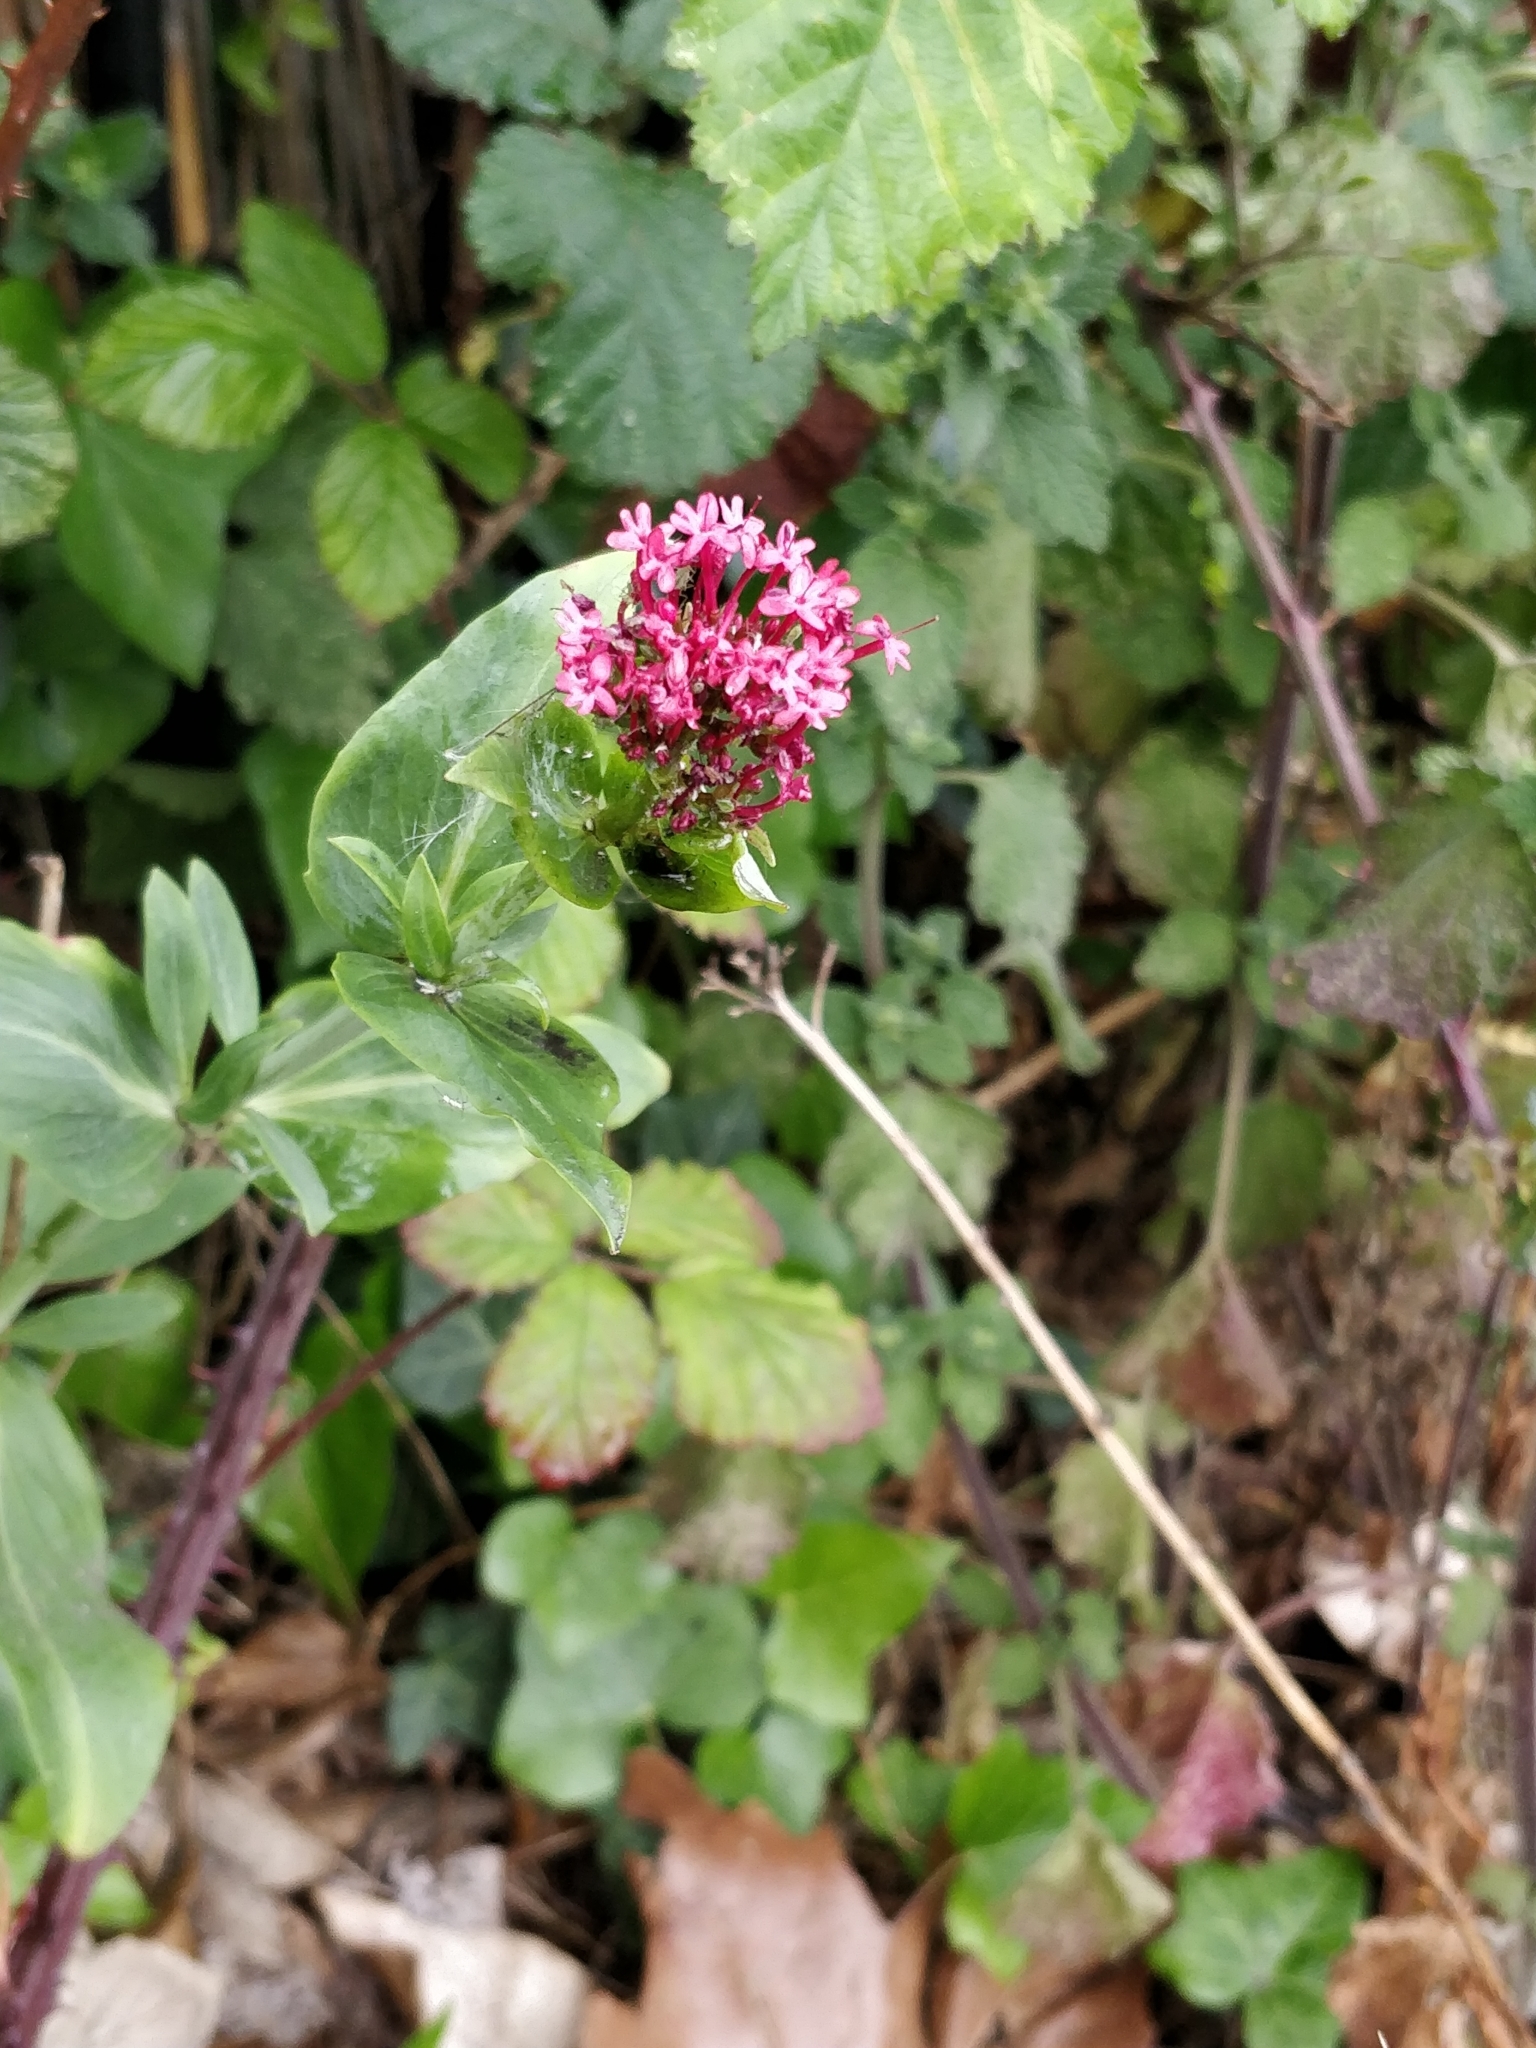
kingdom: Plantae
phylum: Tracheophyta
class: Magnoliopsida
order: Dipsacales
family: Caprifoliaceae
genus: Centranthus
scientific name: Centranthus ruber
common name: Red valerian
